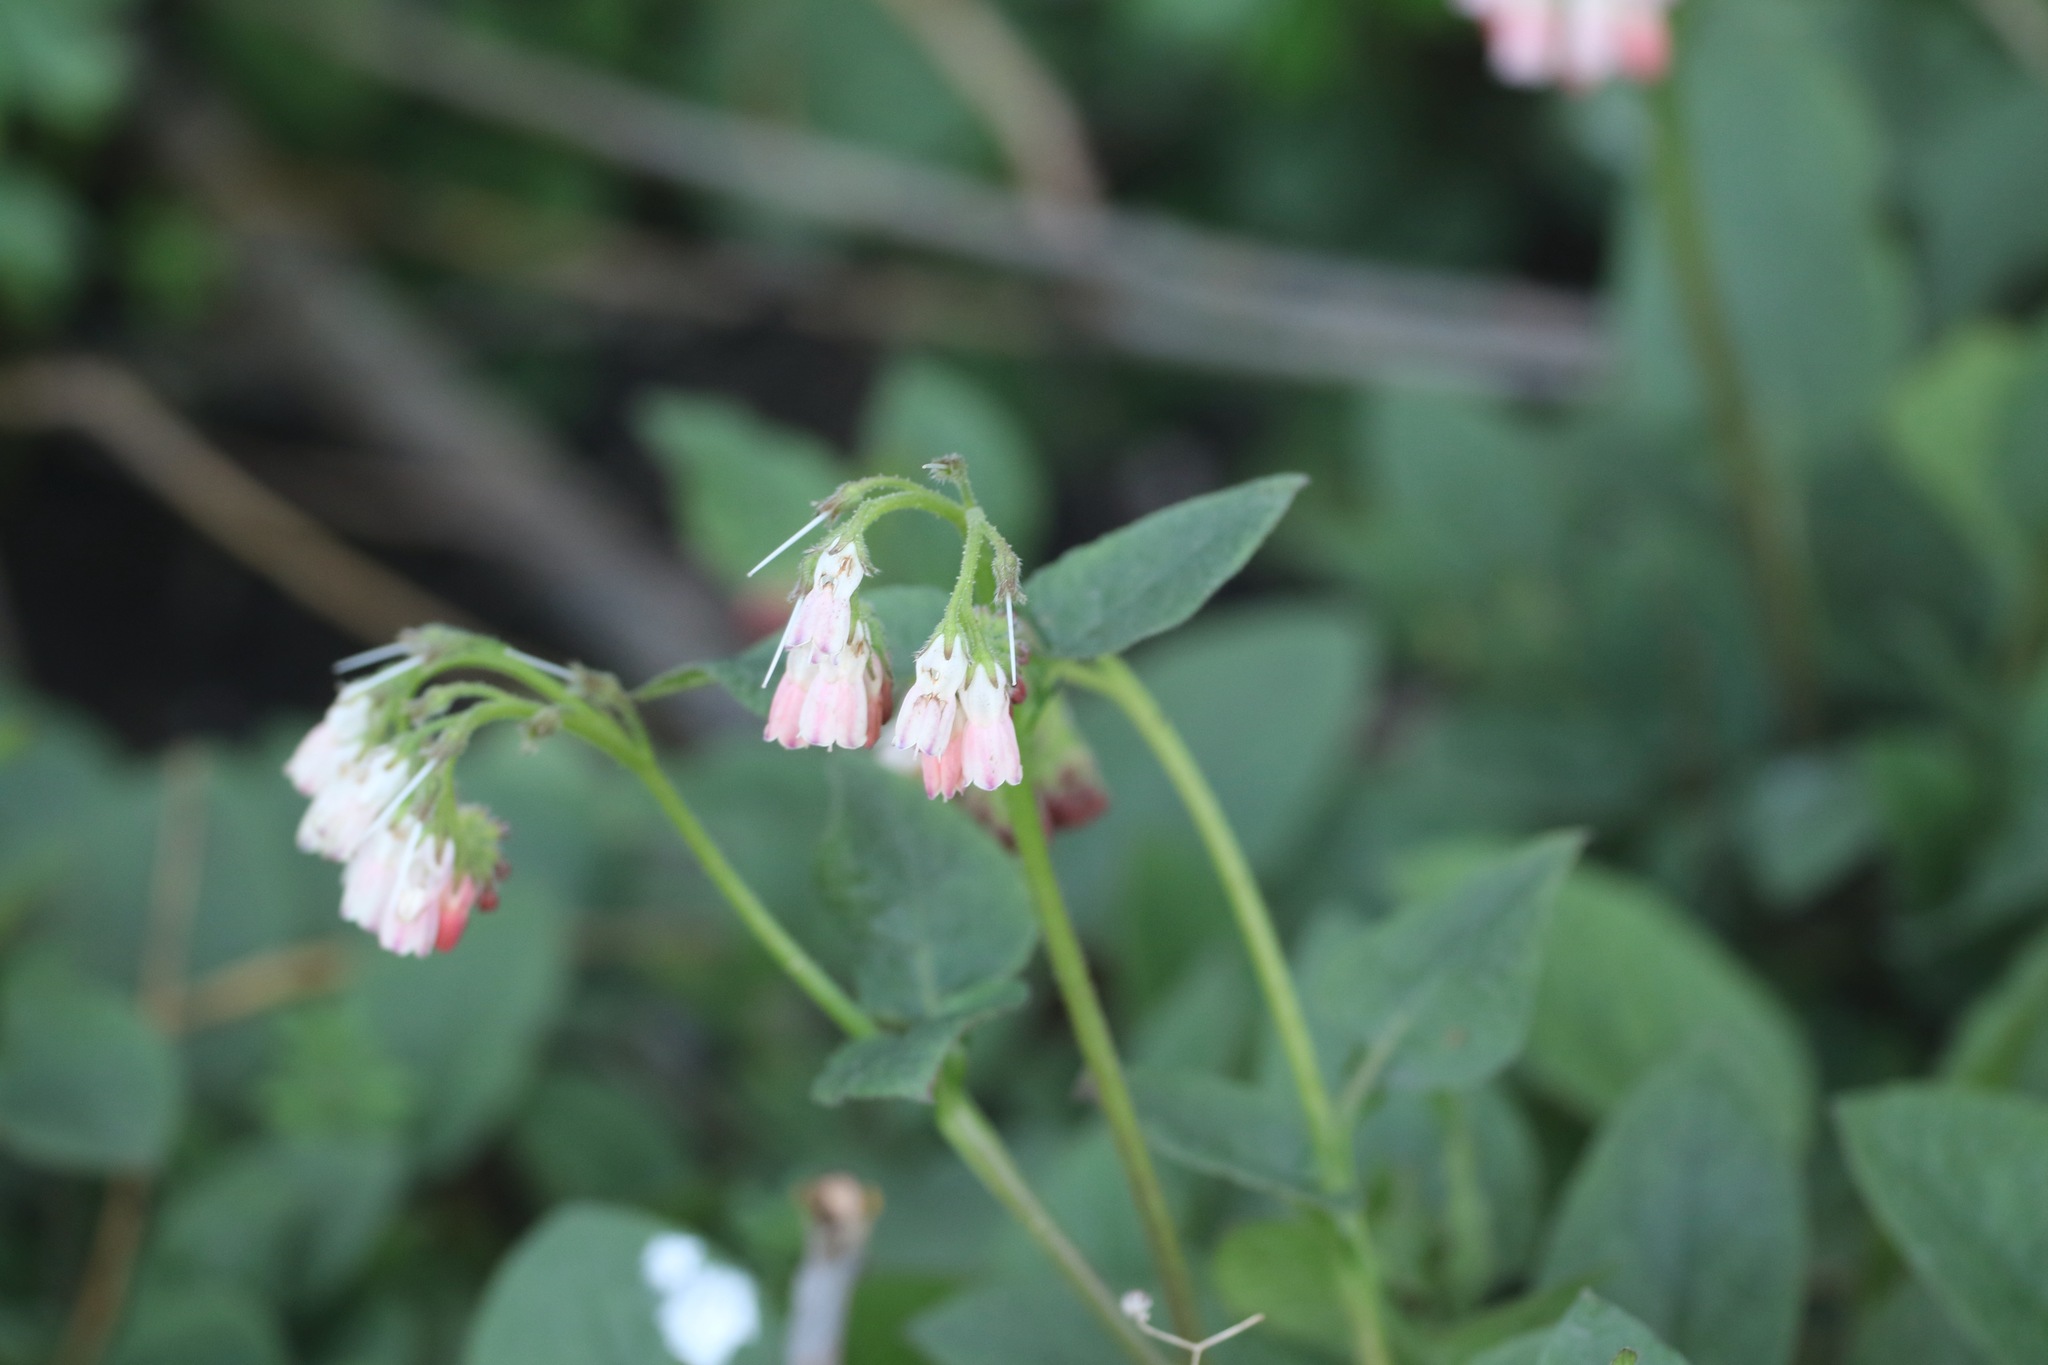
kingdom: Plantae
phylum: Tracheophyta
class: Magnoliopsida
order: Boraginales
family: Boraginaceae
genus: Symphytum
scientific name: Symphytum hidcotense
